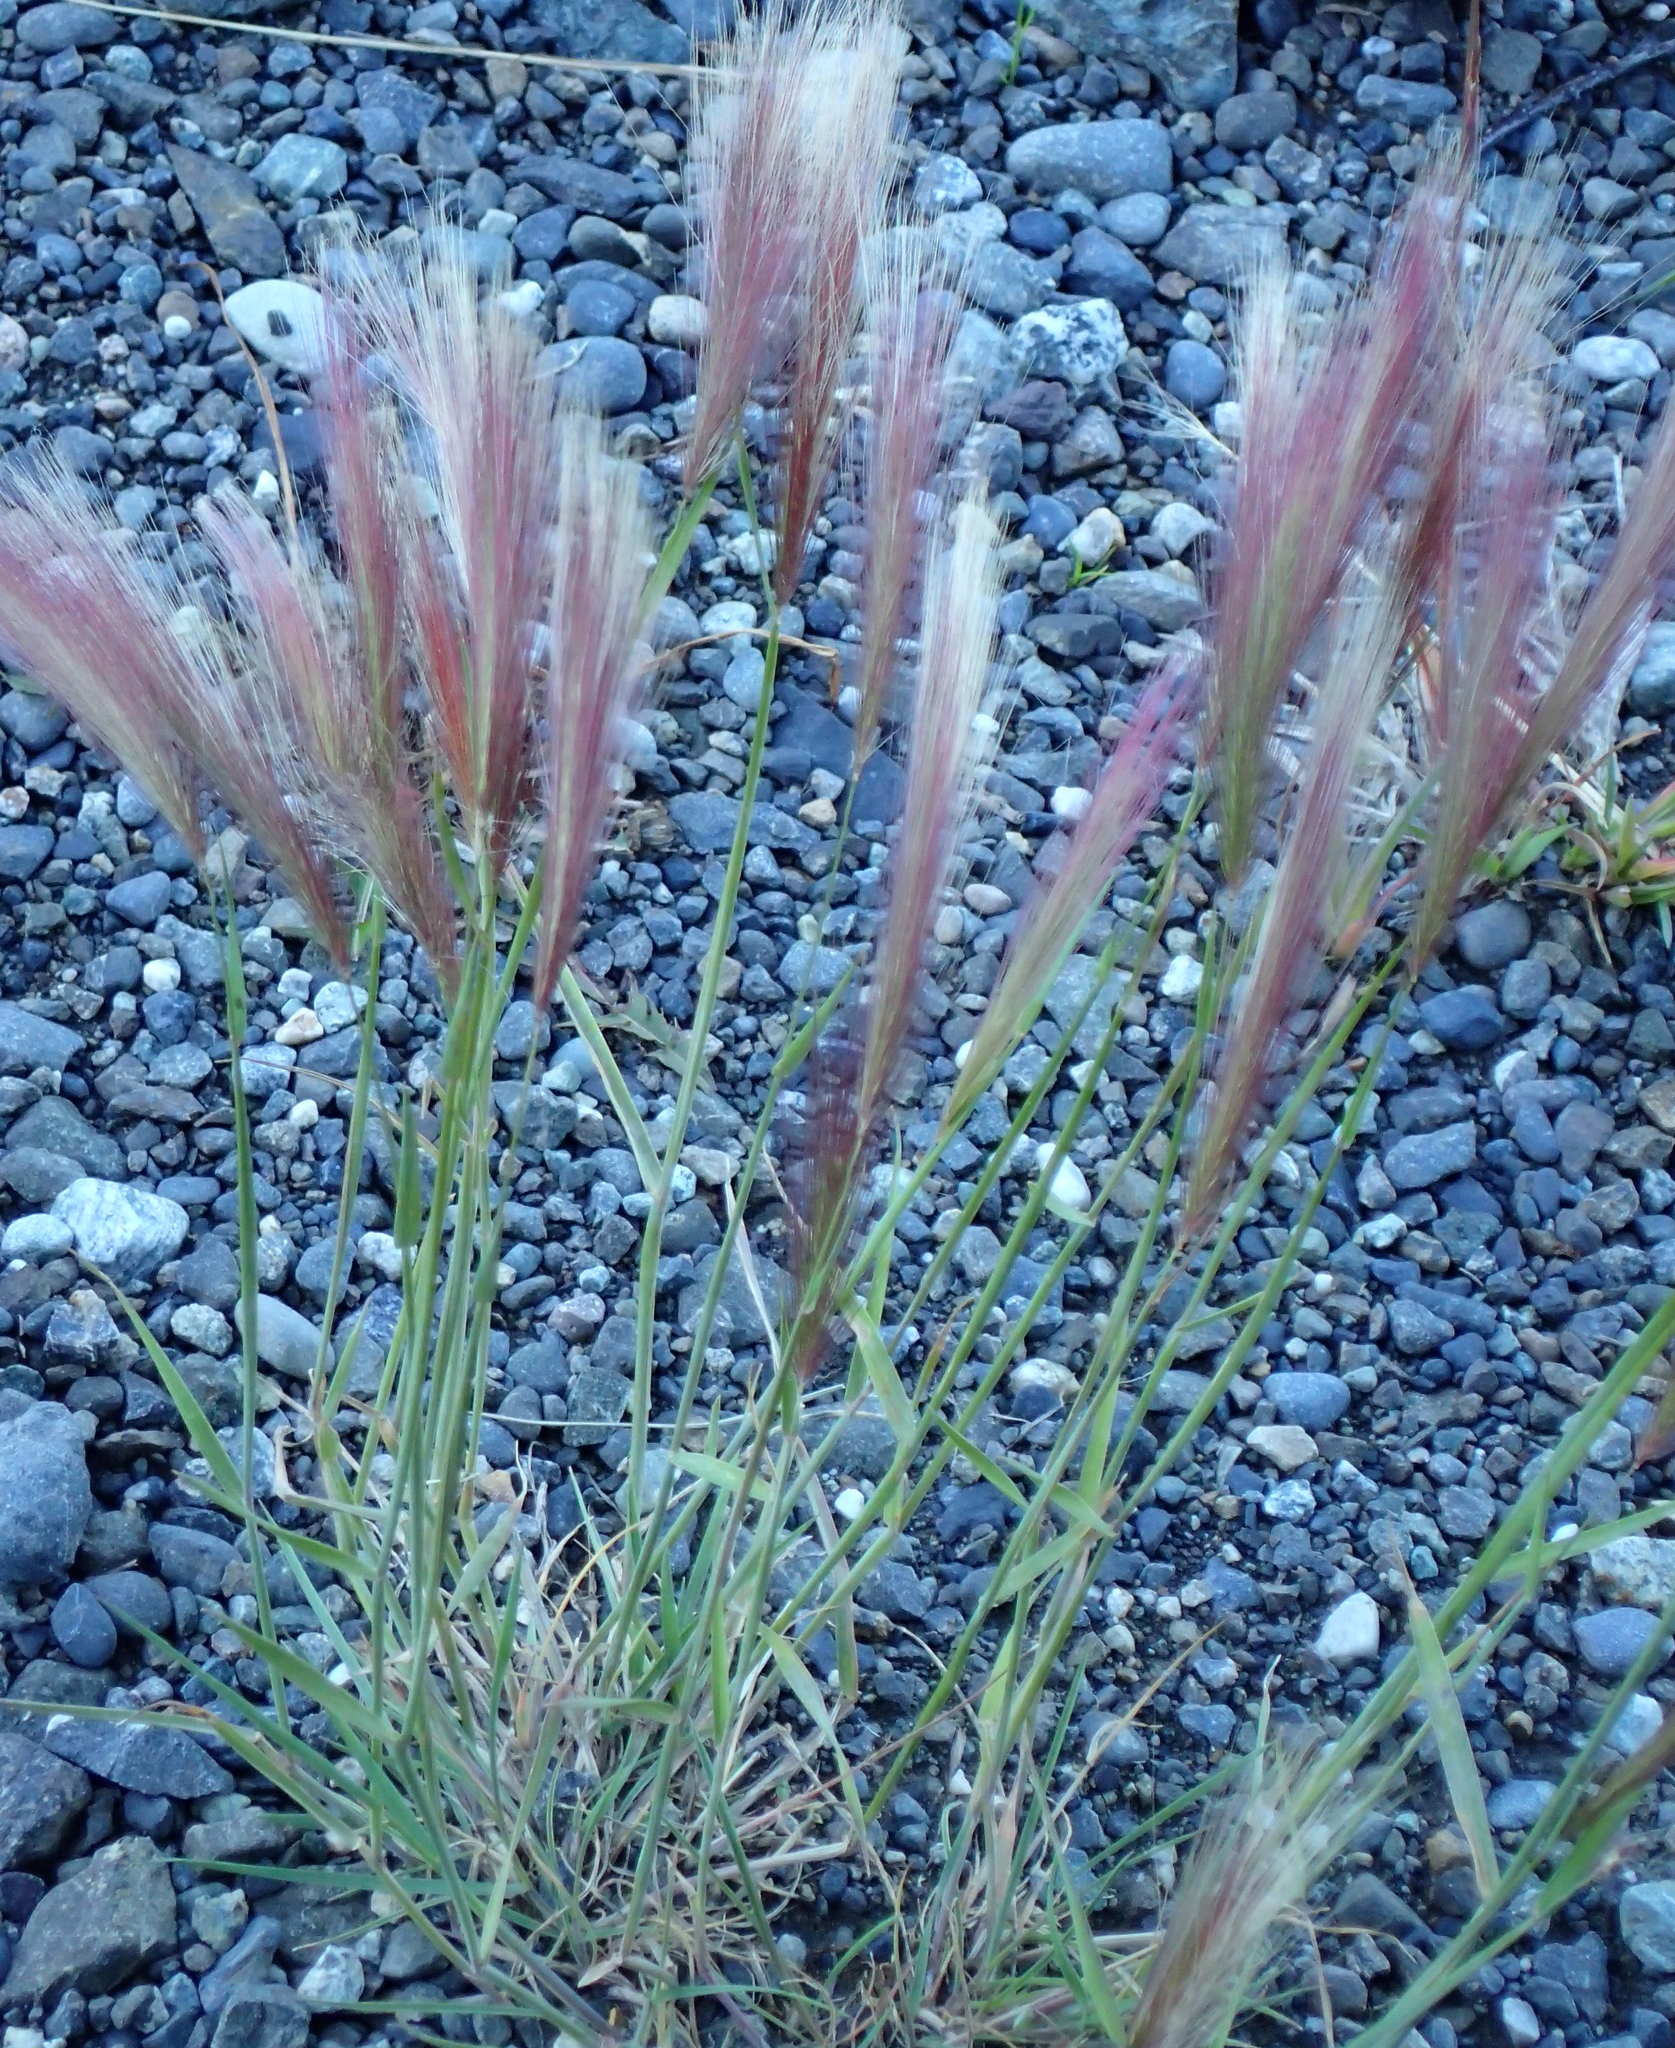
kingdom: Plantae
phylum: Tracheophyta
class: Liliopsida
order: Poales
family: Poaceae
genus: Hordeum
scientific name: Hordeum jubatum
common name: Foxtail barley
